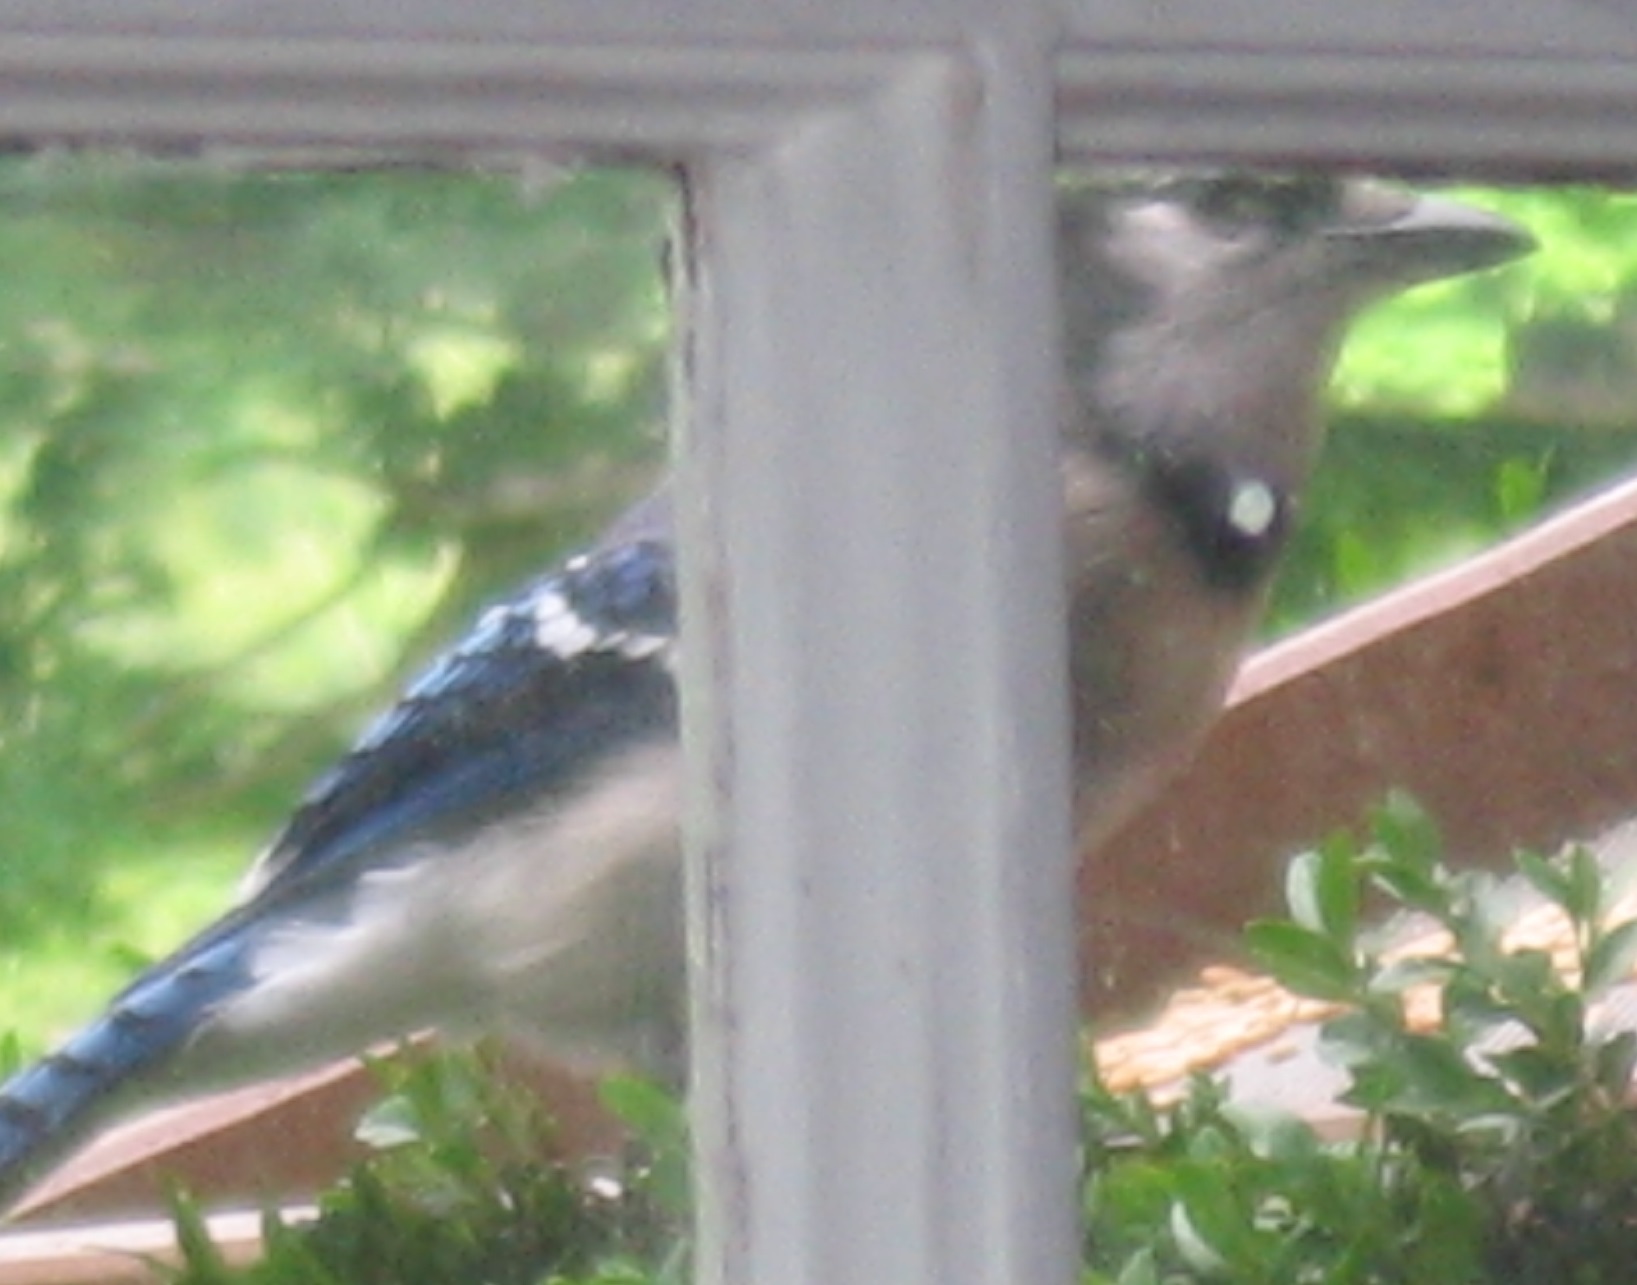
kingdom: Animalia
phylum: Chordata
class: Aves
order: Passeriformes
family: Corvidae
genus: Cyanocitta
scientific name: Cyanocitta cristata
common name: Blue jay
